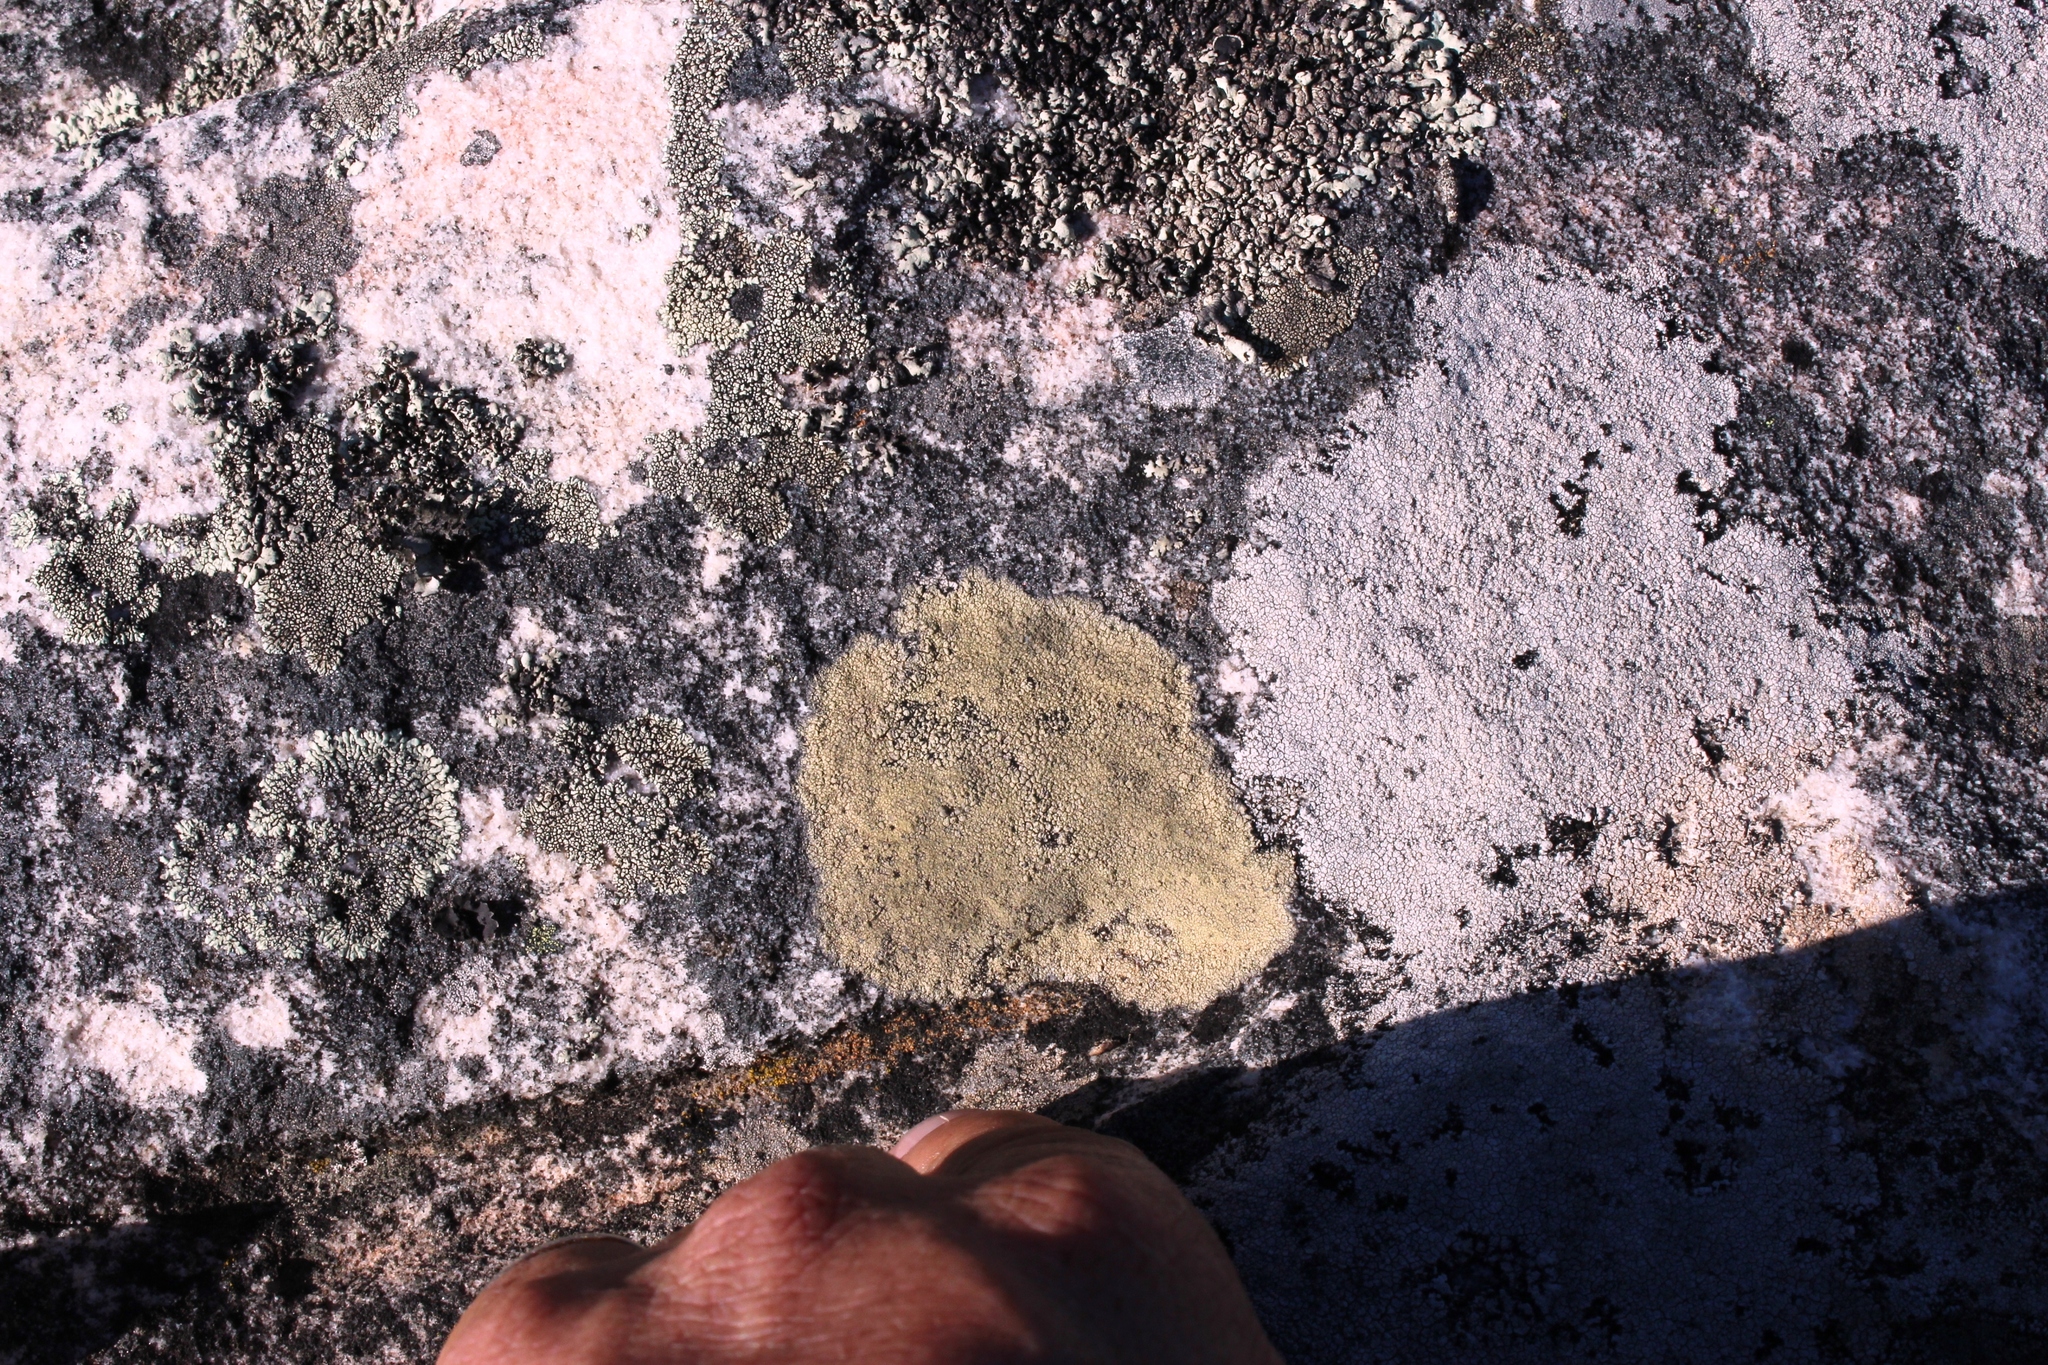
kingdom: Fungi
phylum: Ascomycota
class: Lecanoromycetes
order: Caliciales
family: Caliciaceae
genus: Dimelaena
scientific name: Dimelaena oreina
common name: Golden moonglow lichen
